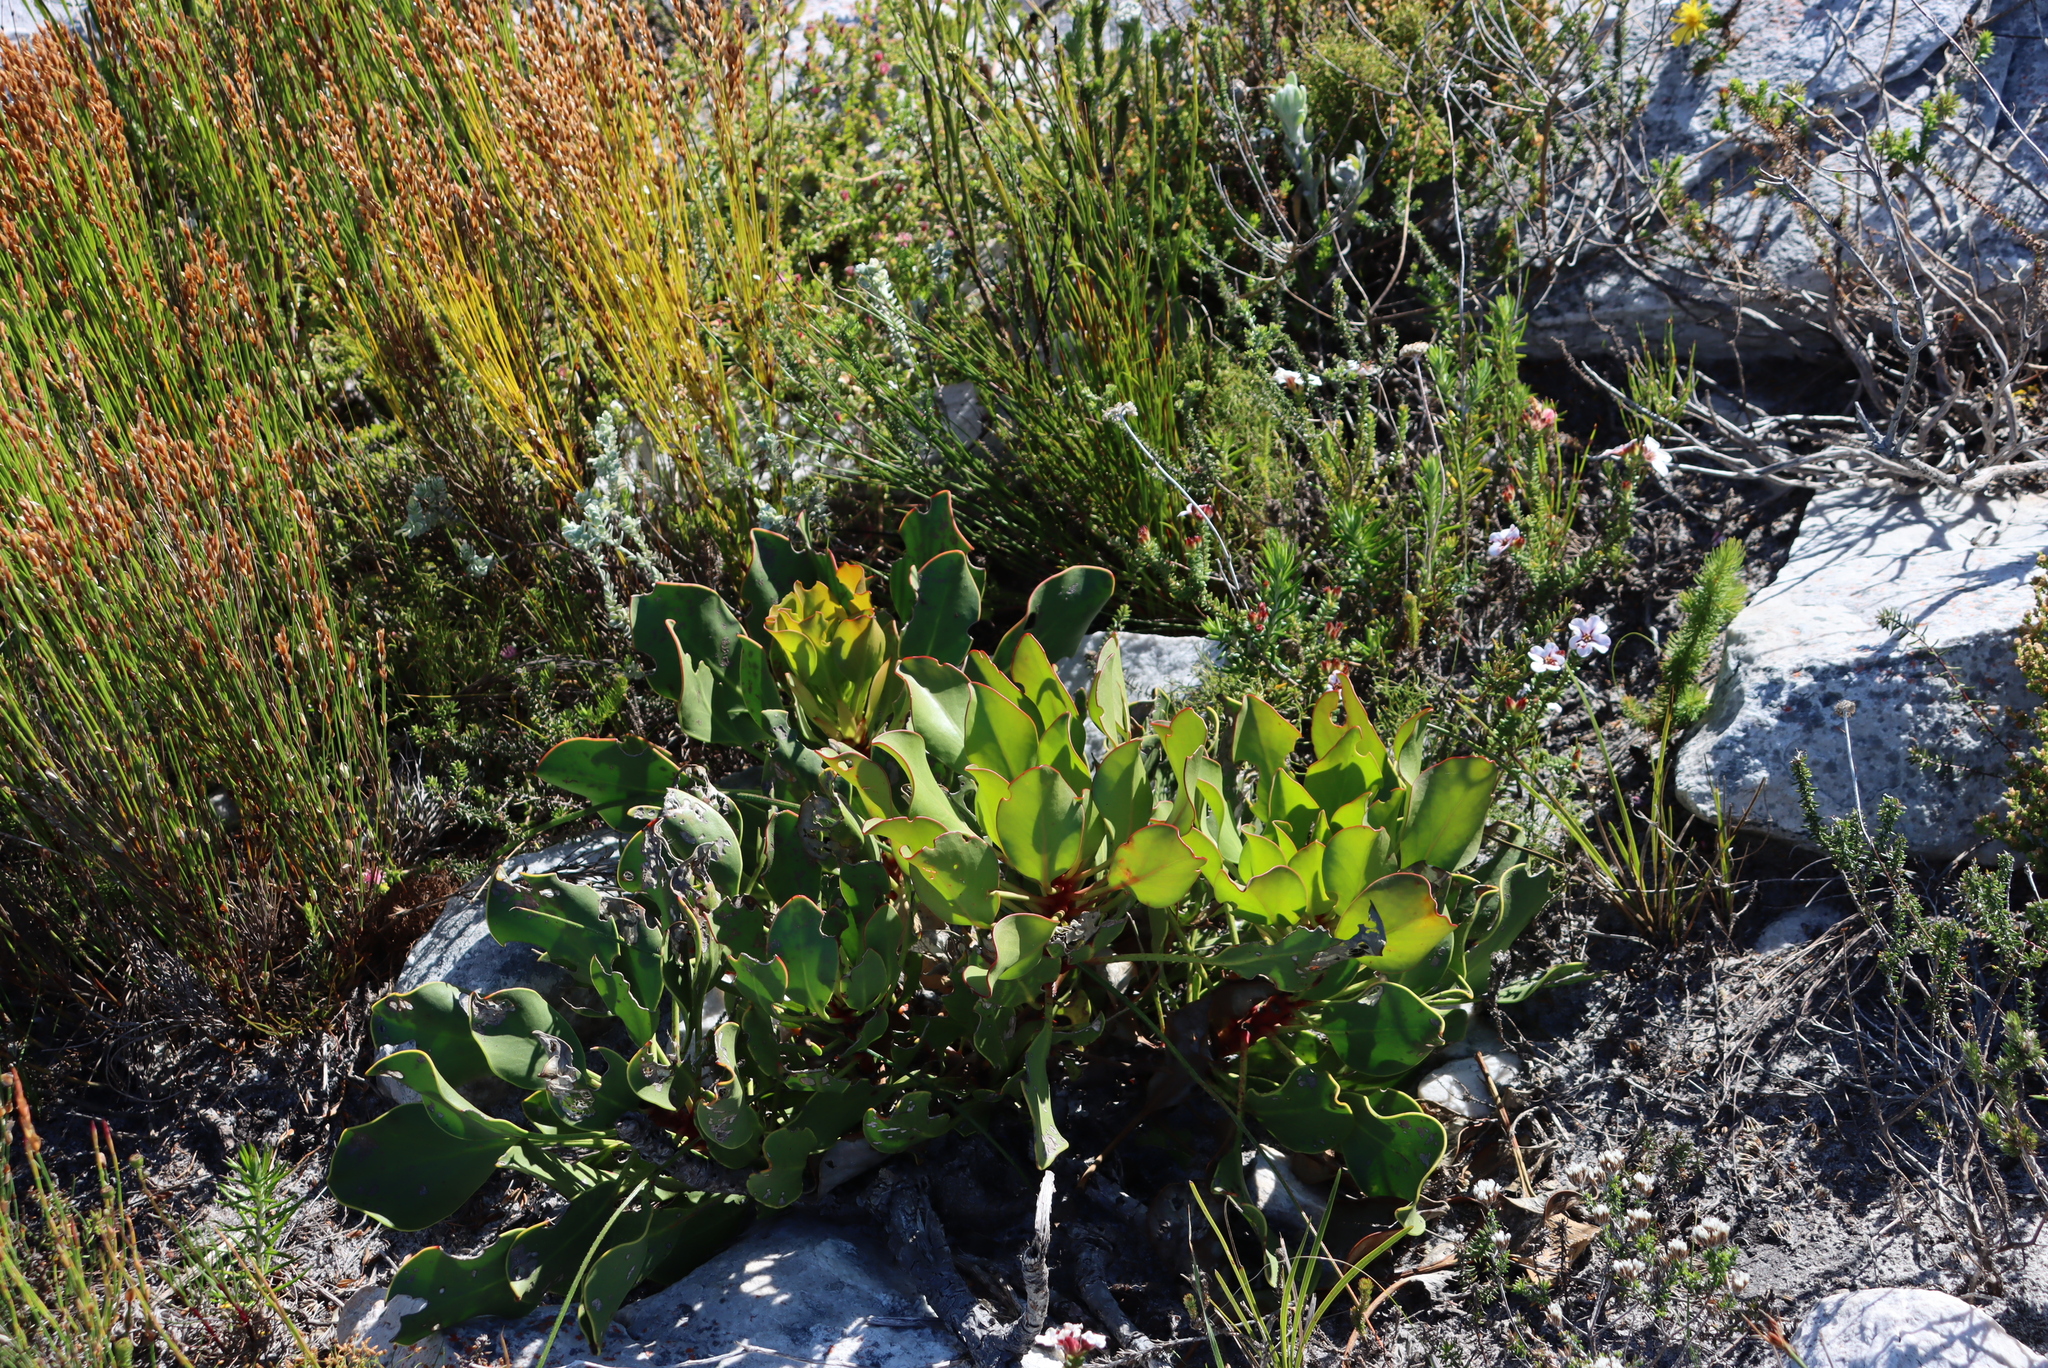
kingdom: Plantae
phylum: Tracheophyta
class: Magnoliopsida
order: Proteales
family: Proteaceae
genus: Protea
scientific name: Protea cynaroides
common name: King protea
